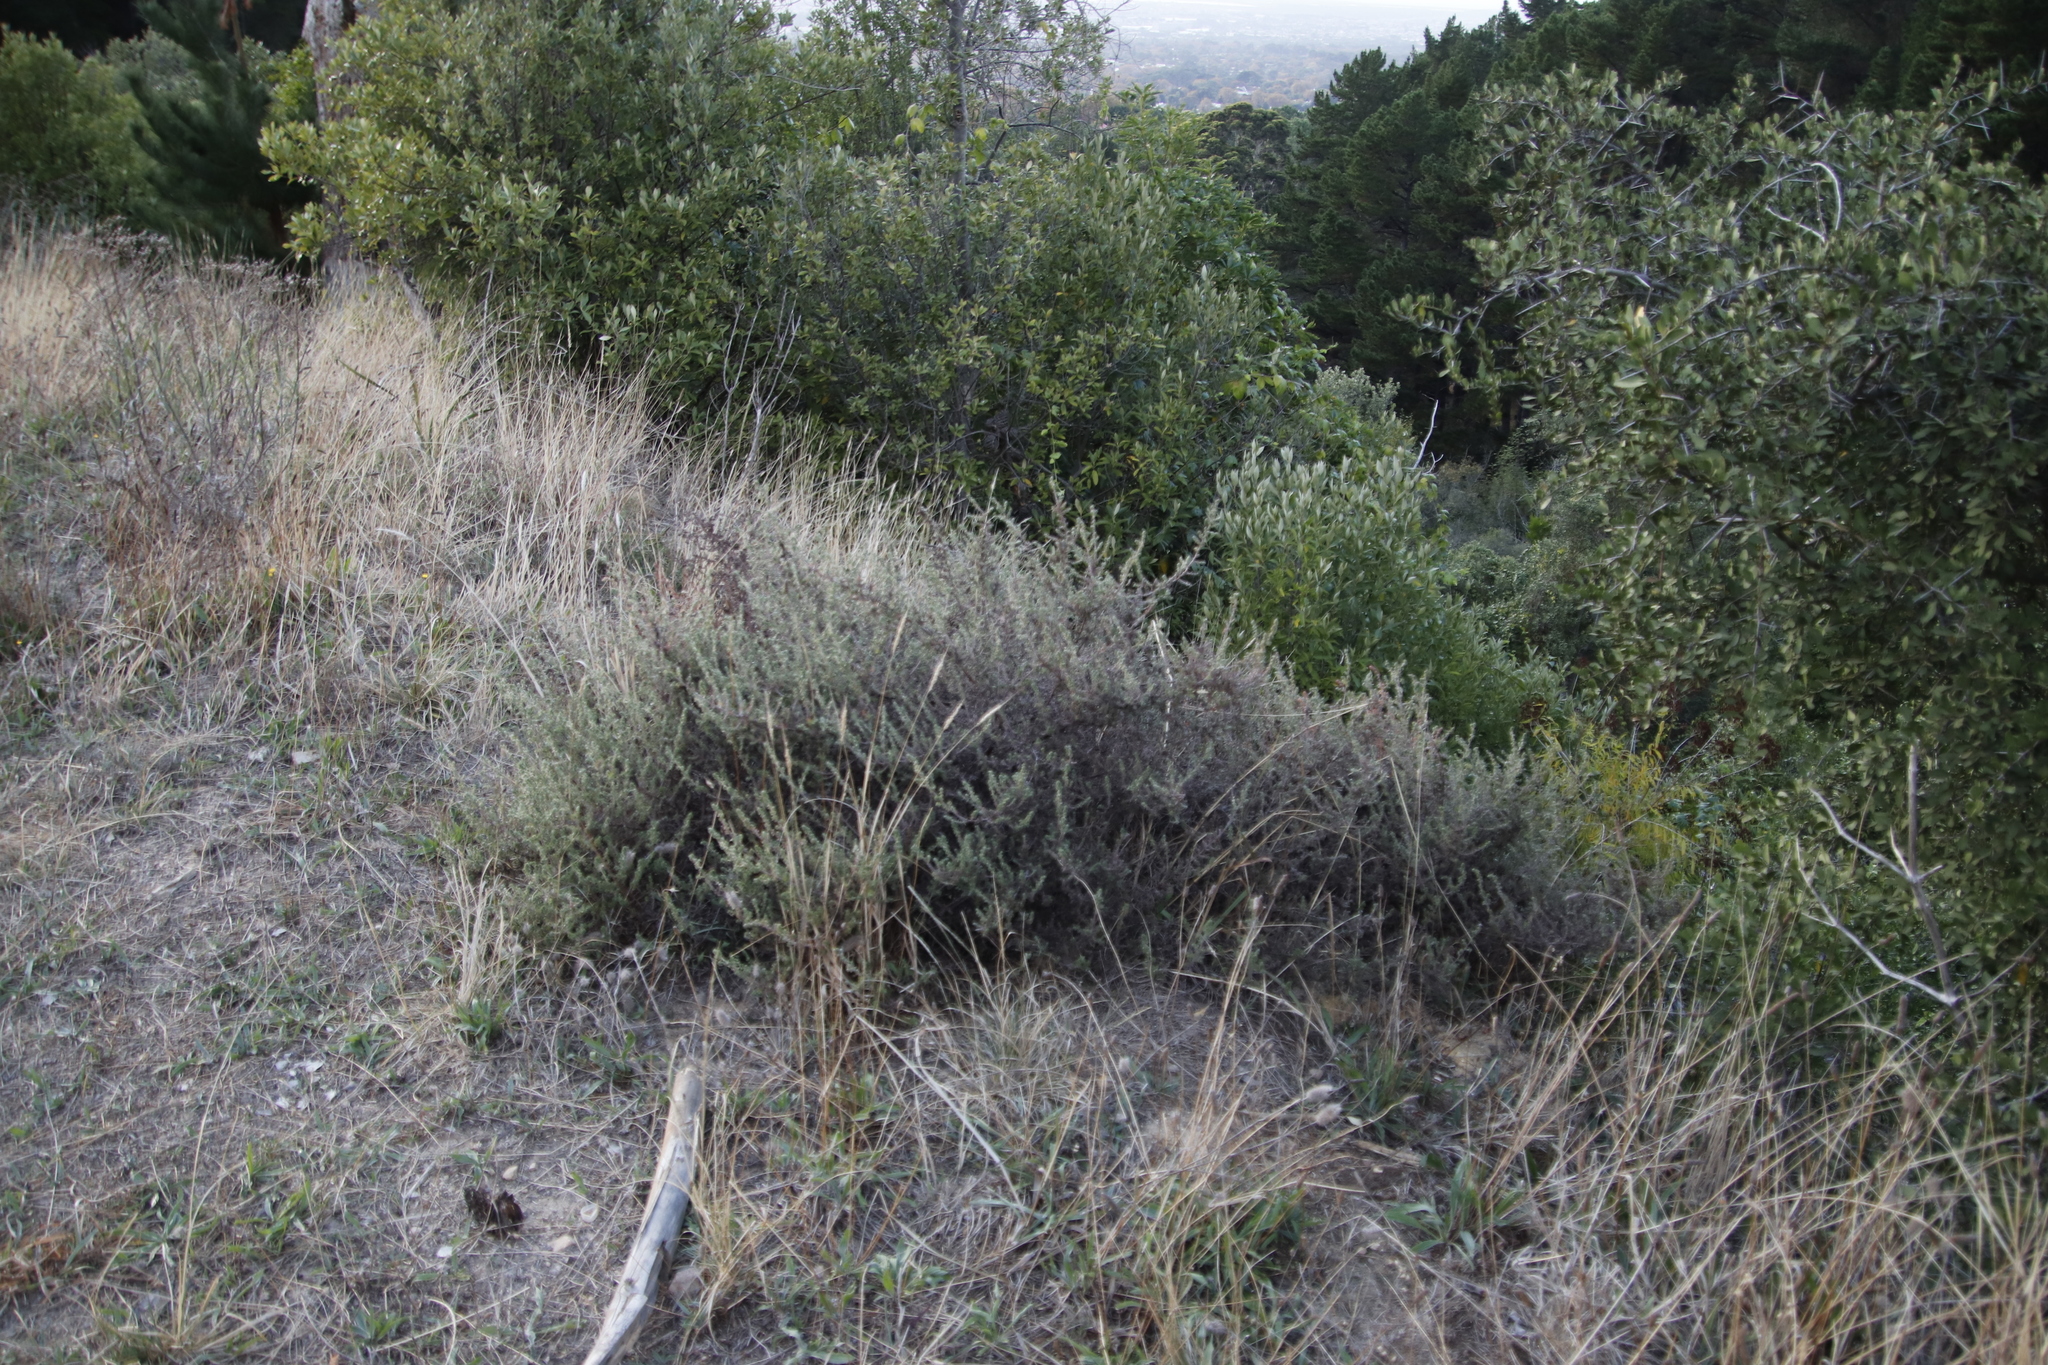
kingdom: Plantae
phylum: Tracheophyta
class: Magnoliopsida
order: Rosales
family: Rosaceae
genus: Cliffortia
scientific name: Cliffortia filicaulis
